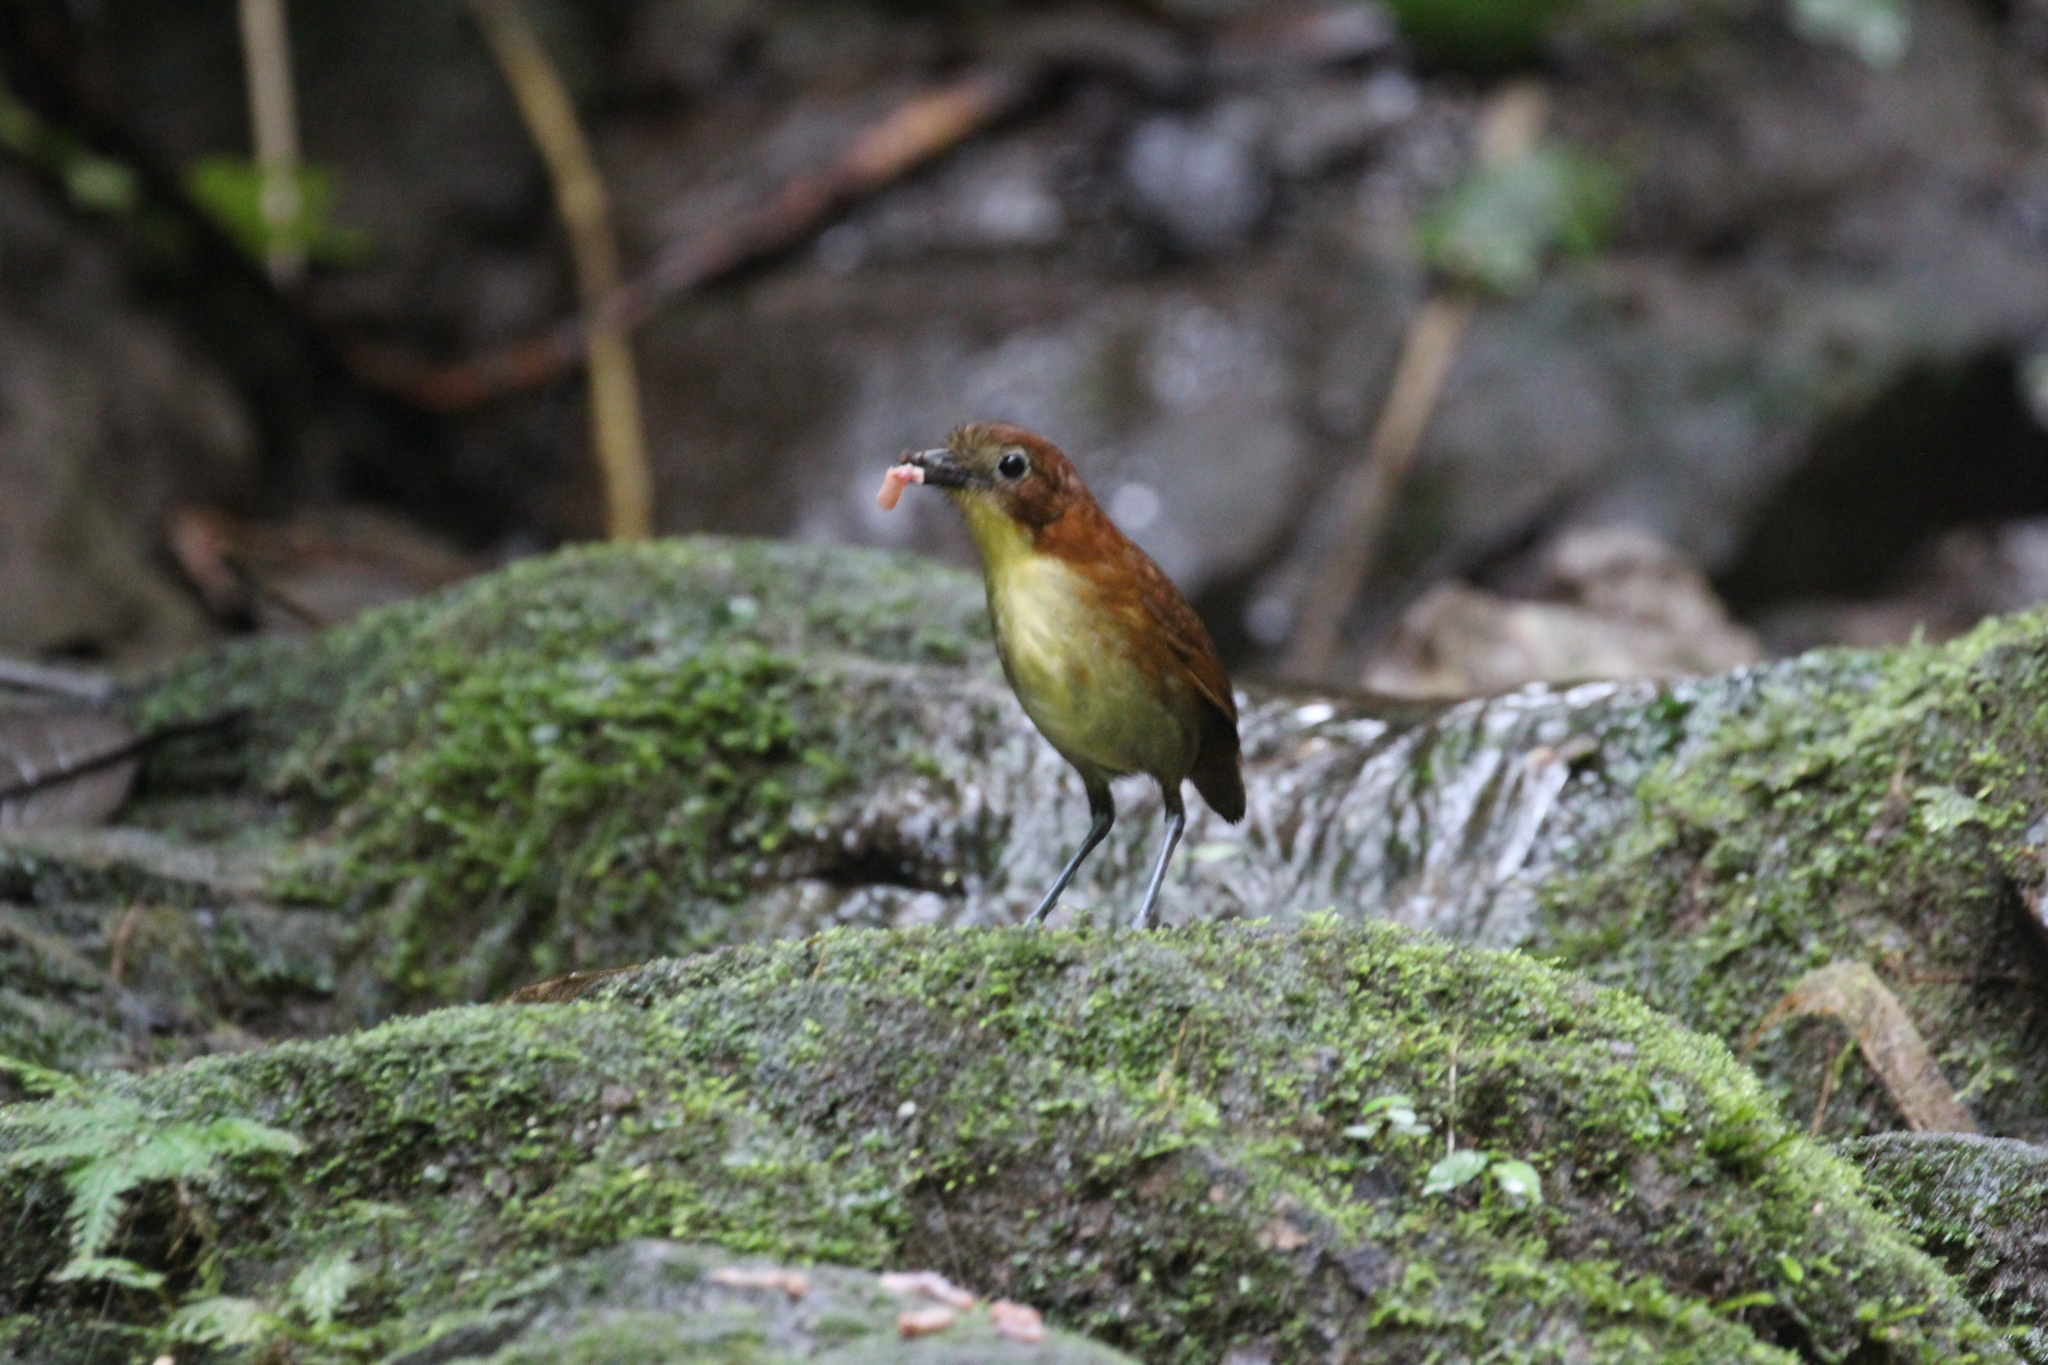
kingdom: Animalia
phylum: Chordata
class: Aves
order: Passeriformes
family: Grallariidae
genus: Grallaria
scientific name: Grallaria flavotincta
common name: Yellow-breasted antpitta
